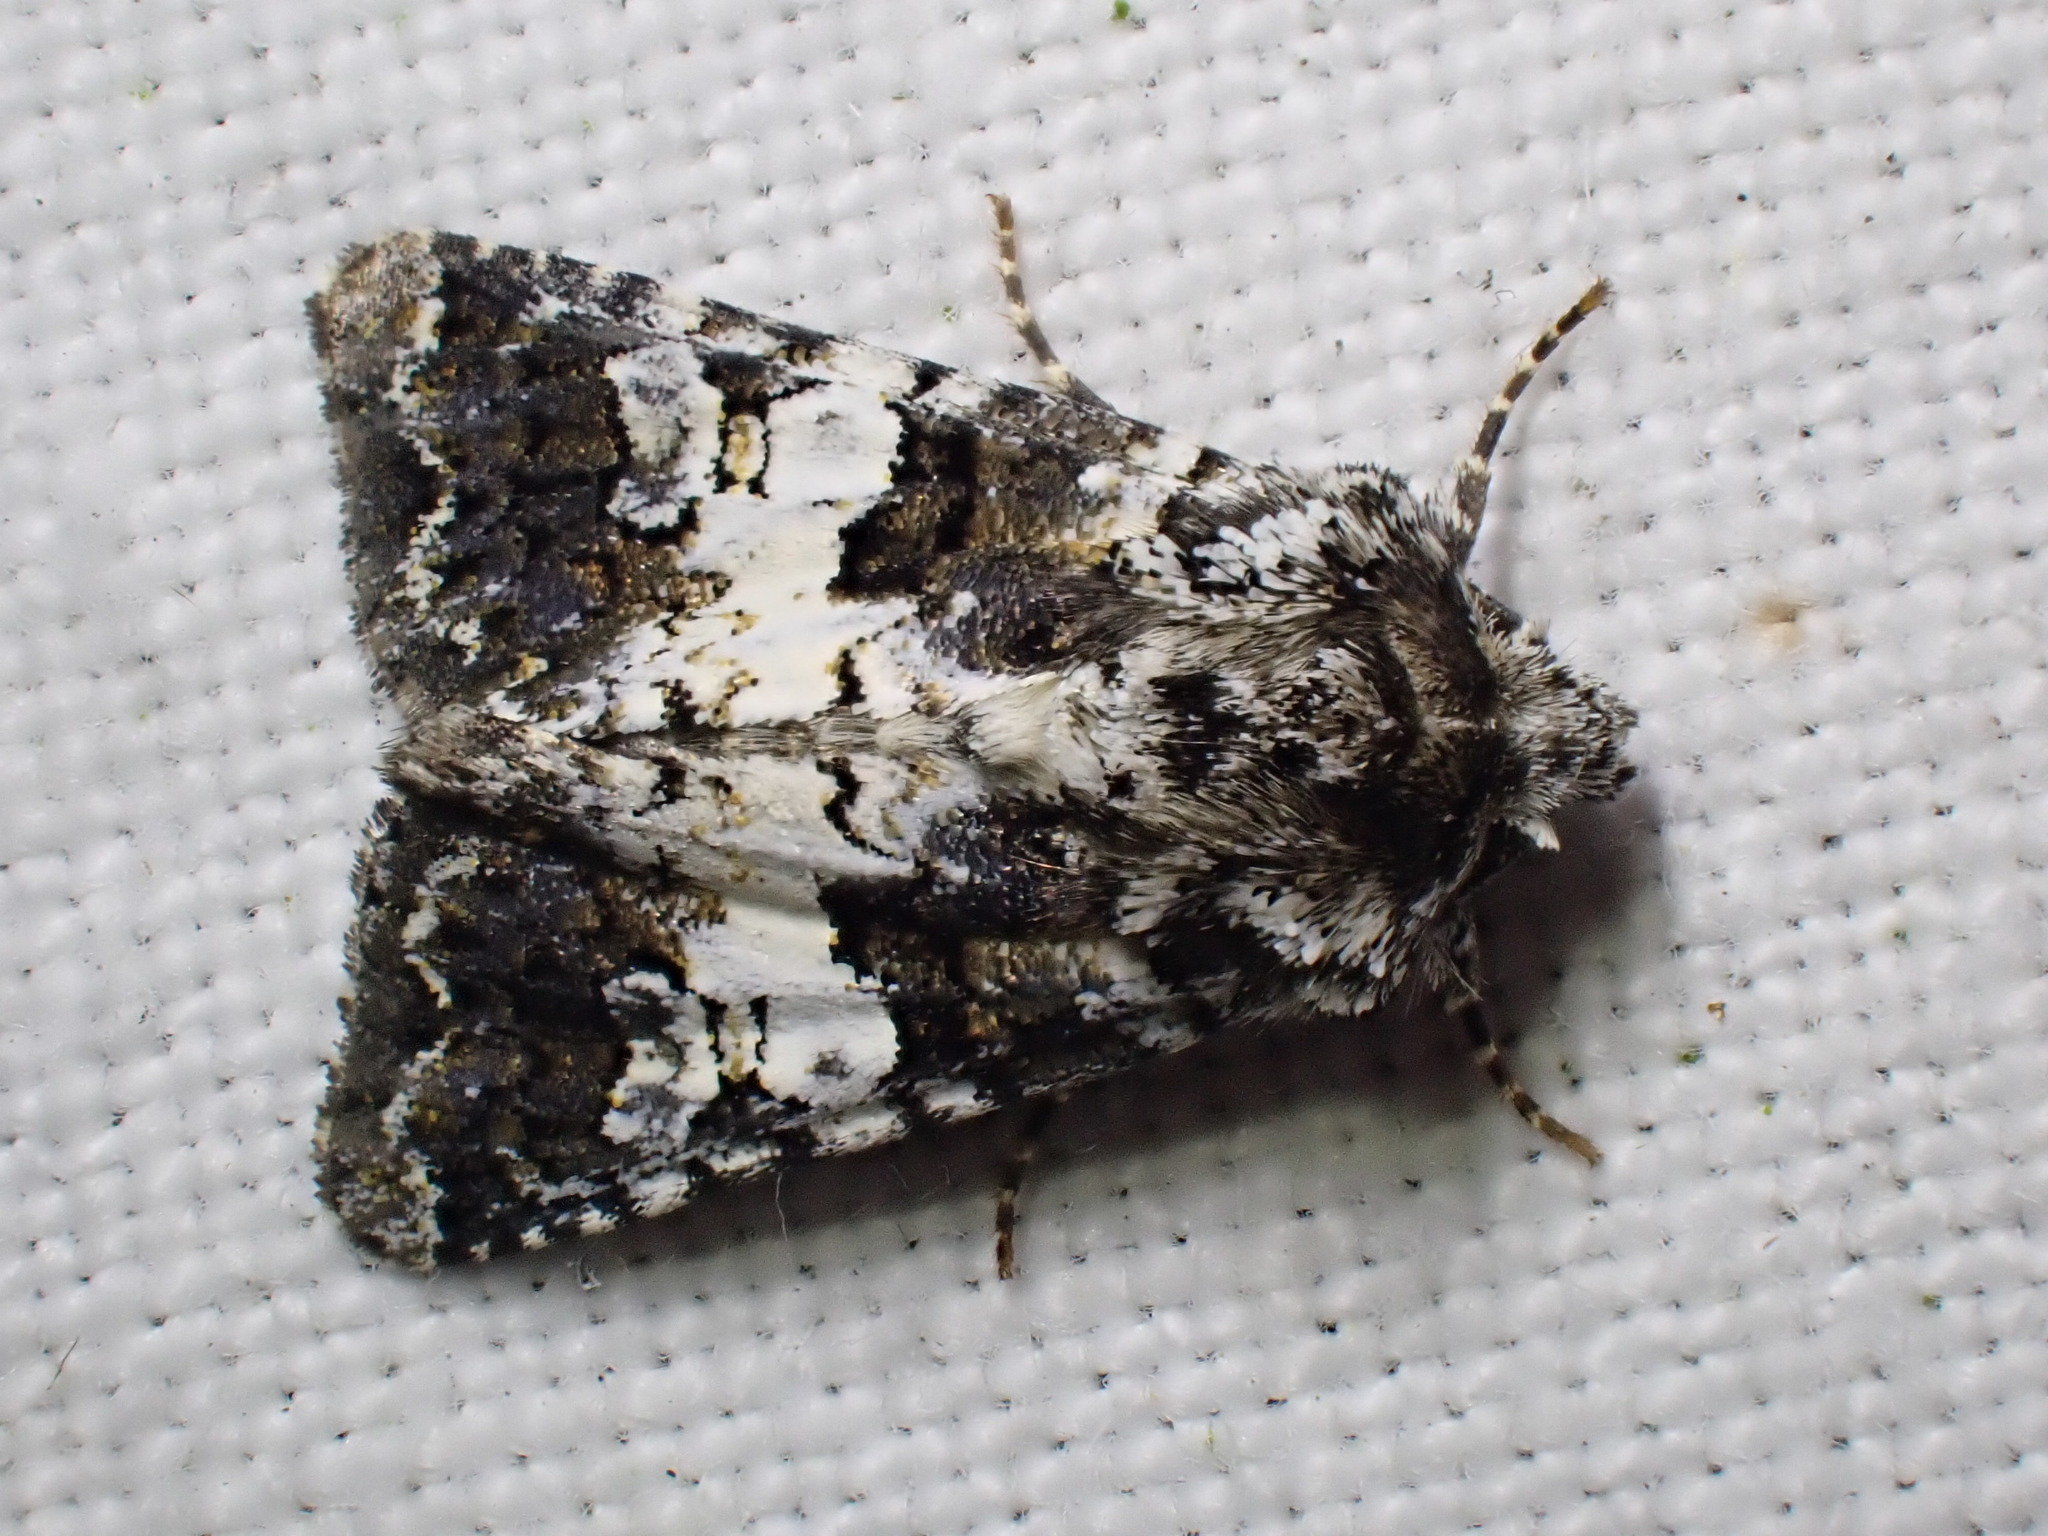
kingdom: Animalia
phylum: Arthropoda
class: Insecta
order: Lepidoptera
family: Noctuidae
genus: Hadena
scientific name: Hadena compta
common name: Varied coronet
